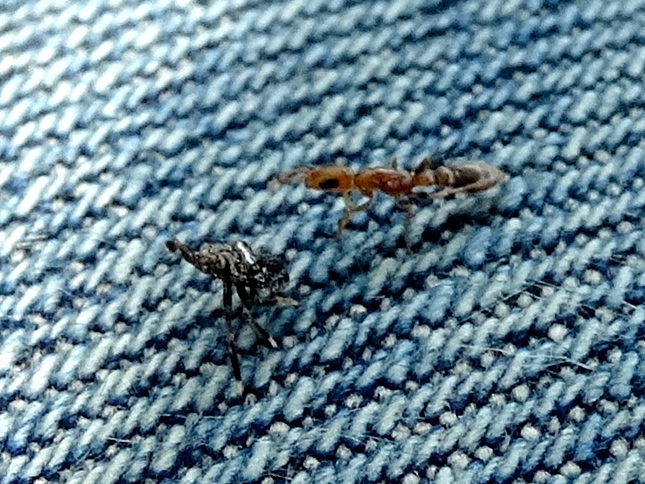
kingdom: Animalia
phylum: Arthropoda
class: Insecta
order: Hymenoptera
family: Formicidae
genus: Pseudomyrmex
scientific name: Pseudomyrmex
